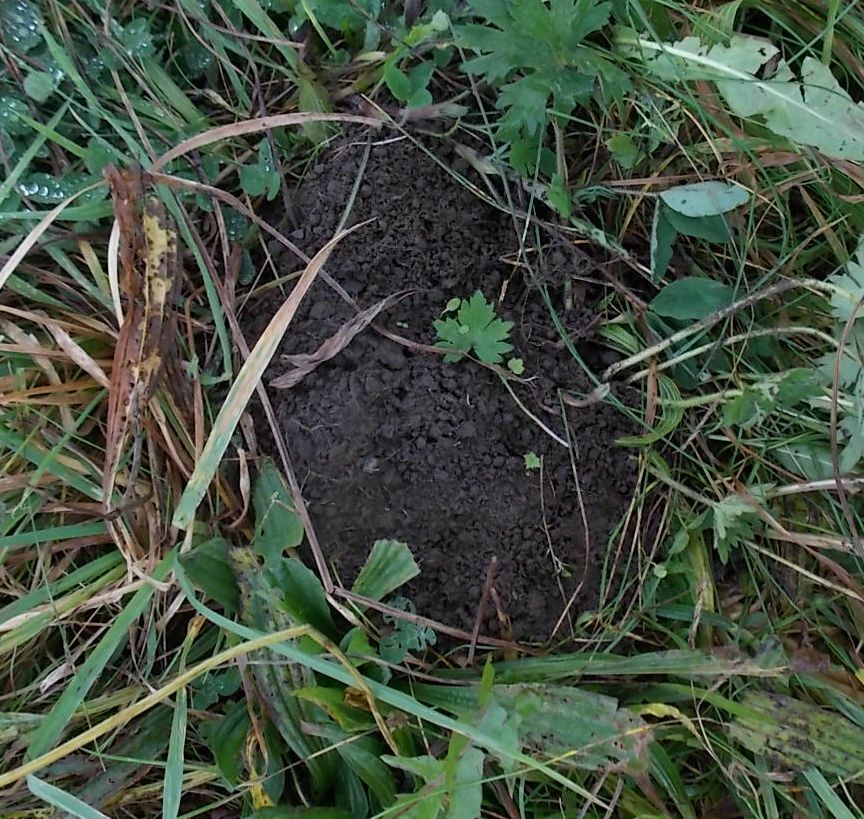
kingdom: Animalia
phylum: Chordata
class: Mammalia
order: Soricomorpha
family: Talpidae
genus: Talpa
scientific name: Talpa europaea
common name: European mole
